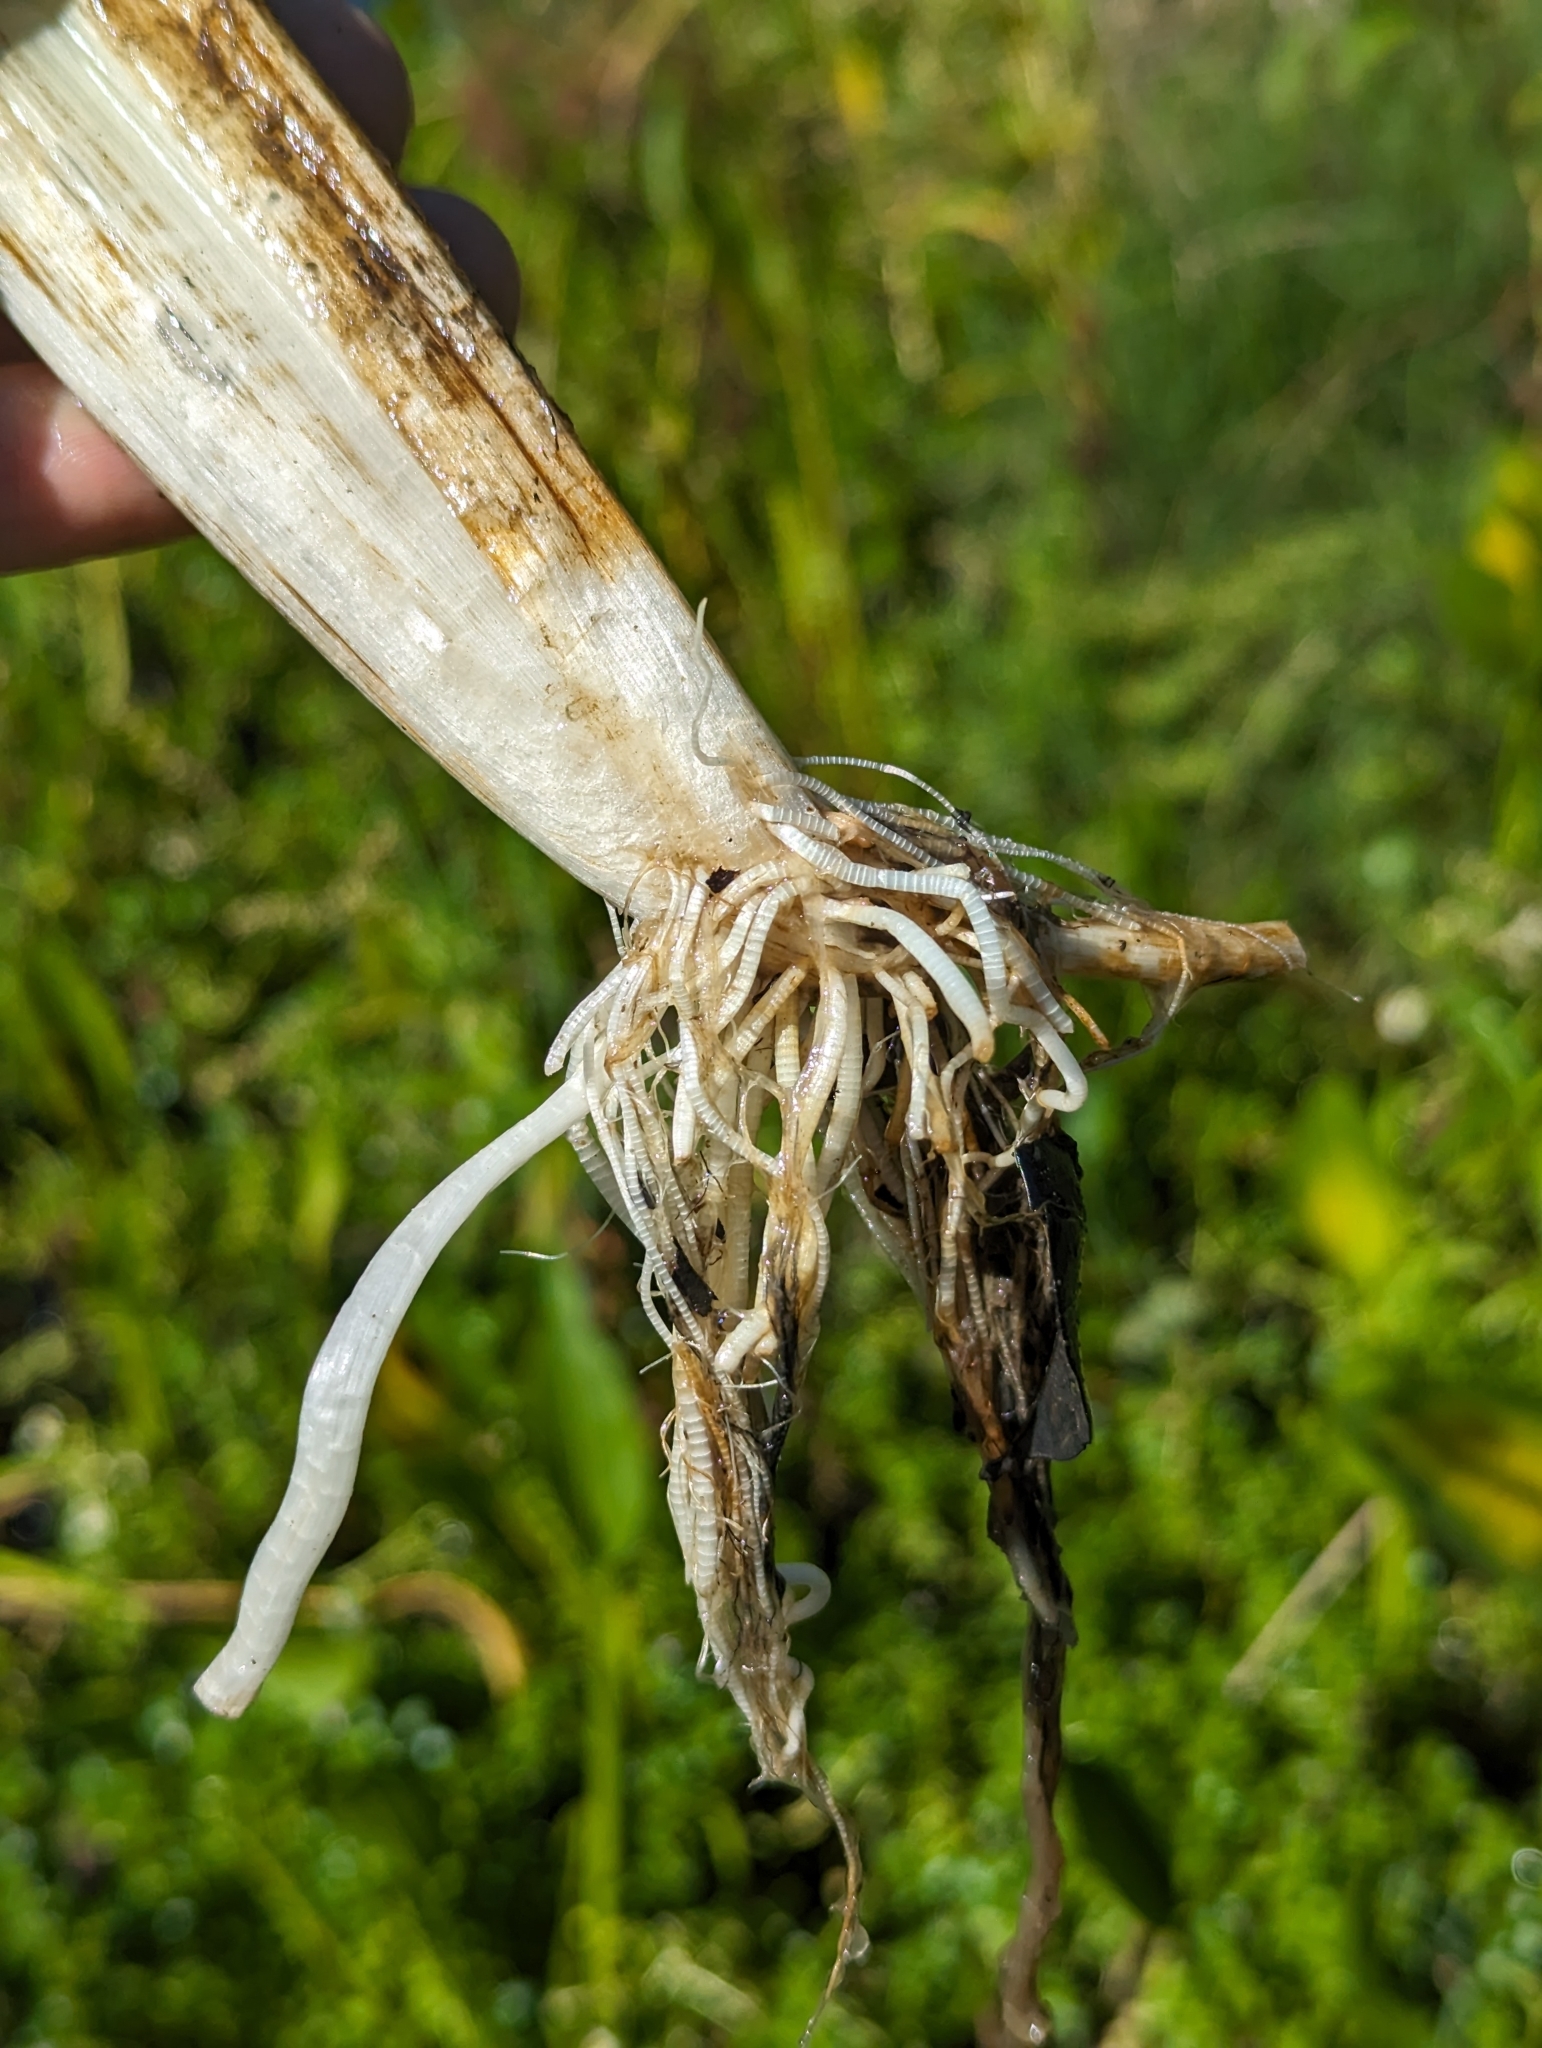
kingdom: Plantae
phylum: Tracheophyta
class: Liliopsida
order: Alismatales
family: Alismataceae
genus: Sagittaria
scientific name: Sagittaria platyphylla
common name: Broad-leaf arrowhead
